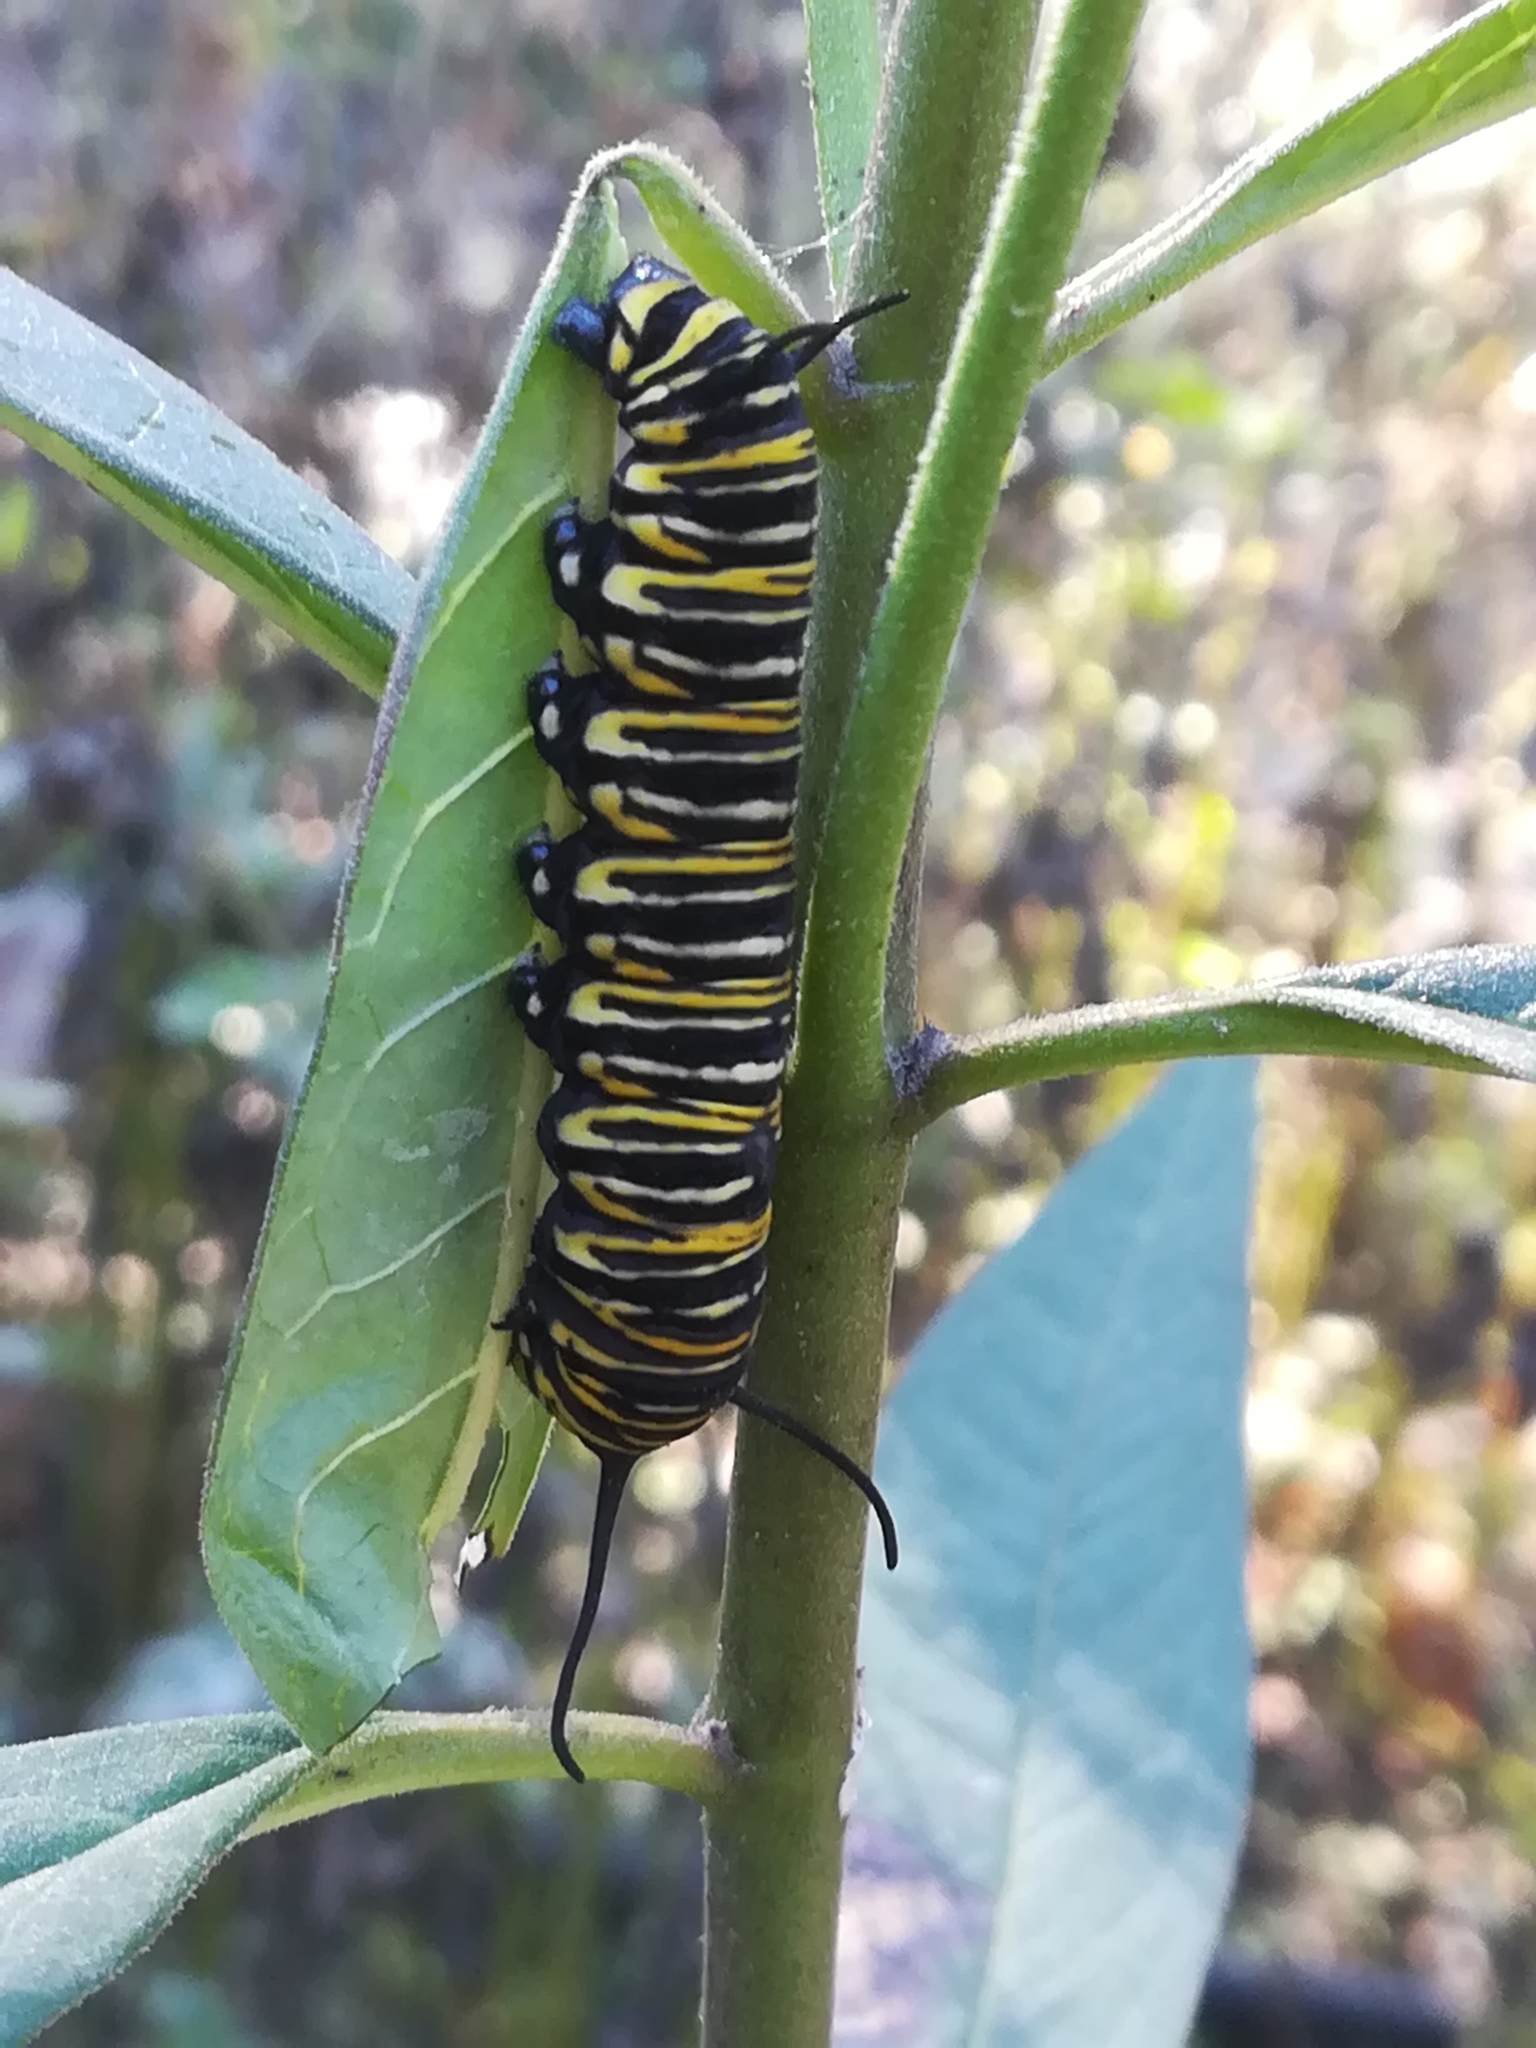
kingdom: Animalia
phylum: Arthropoda
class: Insecta
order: Lepidoptera
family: Nymphalidae
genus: Danaus
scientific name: Danaus plexippus
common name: Monarch
